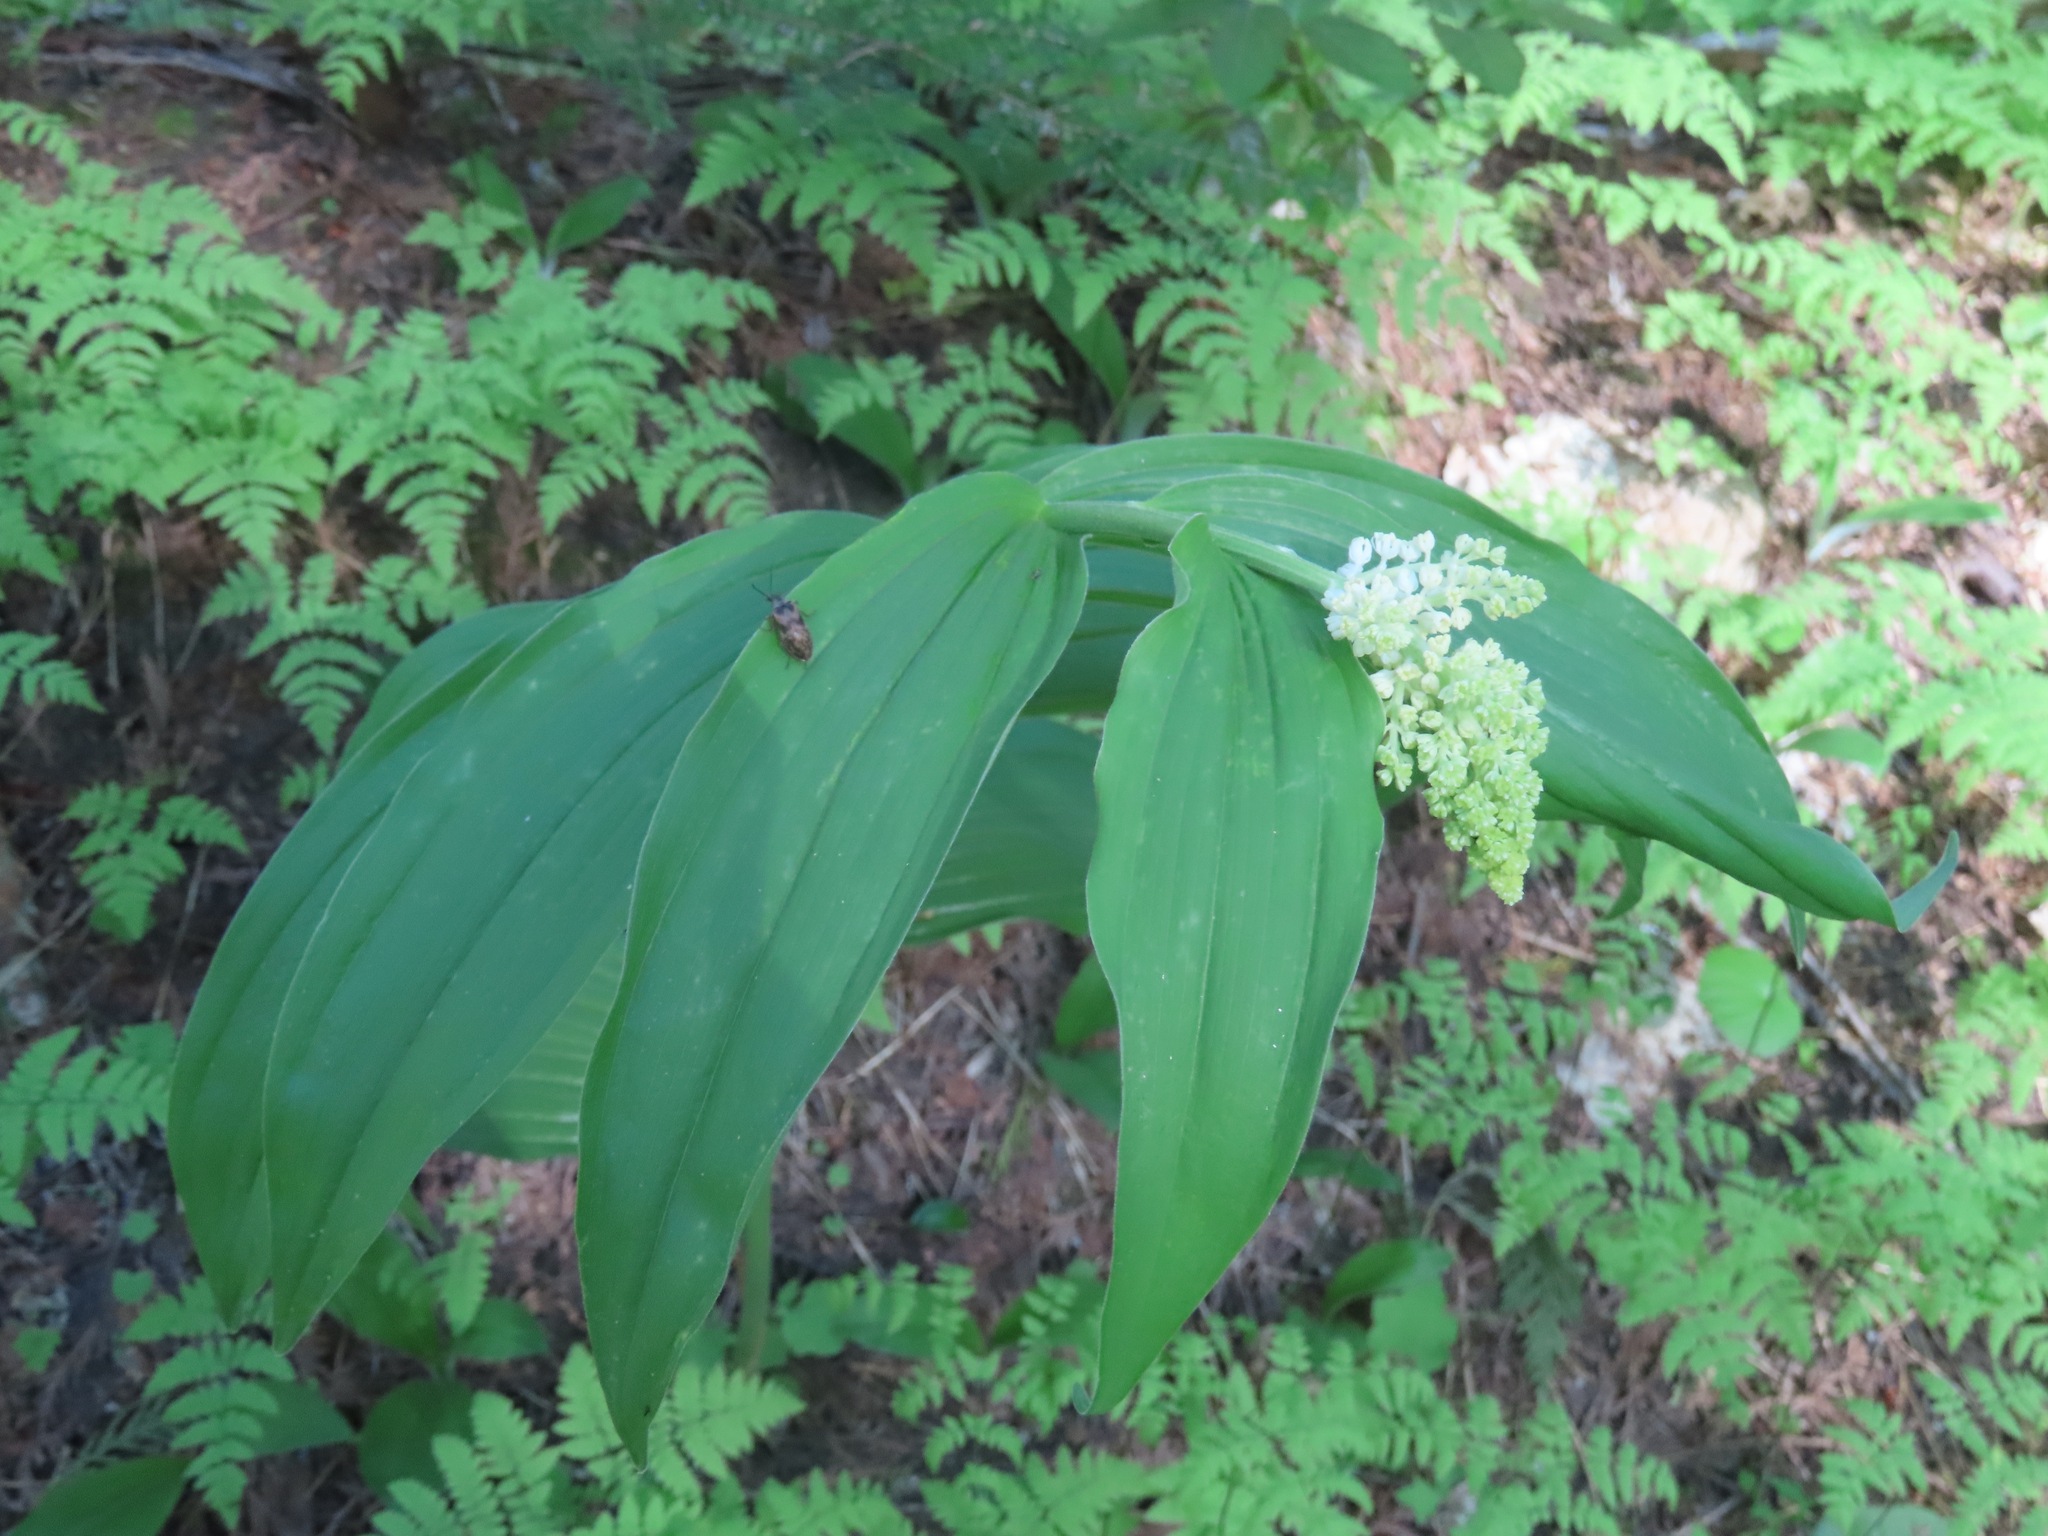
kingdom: Plantae
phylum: Tracheophyta
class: Liliopsida
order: Asparagales
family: Asparagaceae
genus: Maianthemum
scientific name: Maianthemum racemosum
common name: False spikenard
